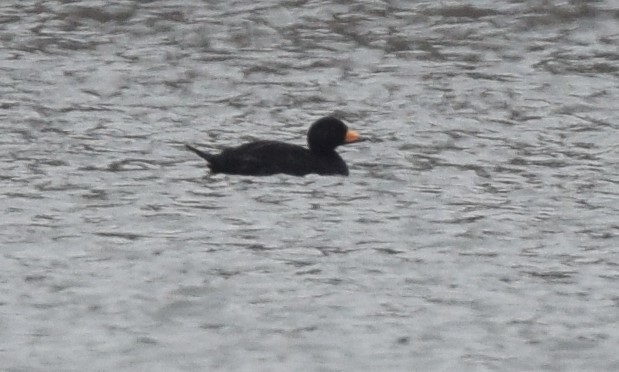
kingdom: Animalia
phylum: Chordata
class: Aves
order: Anseriformes
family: Anatidae
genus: Melanitta
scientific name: Melanitta americana
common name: Black scoter
